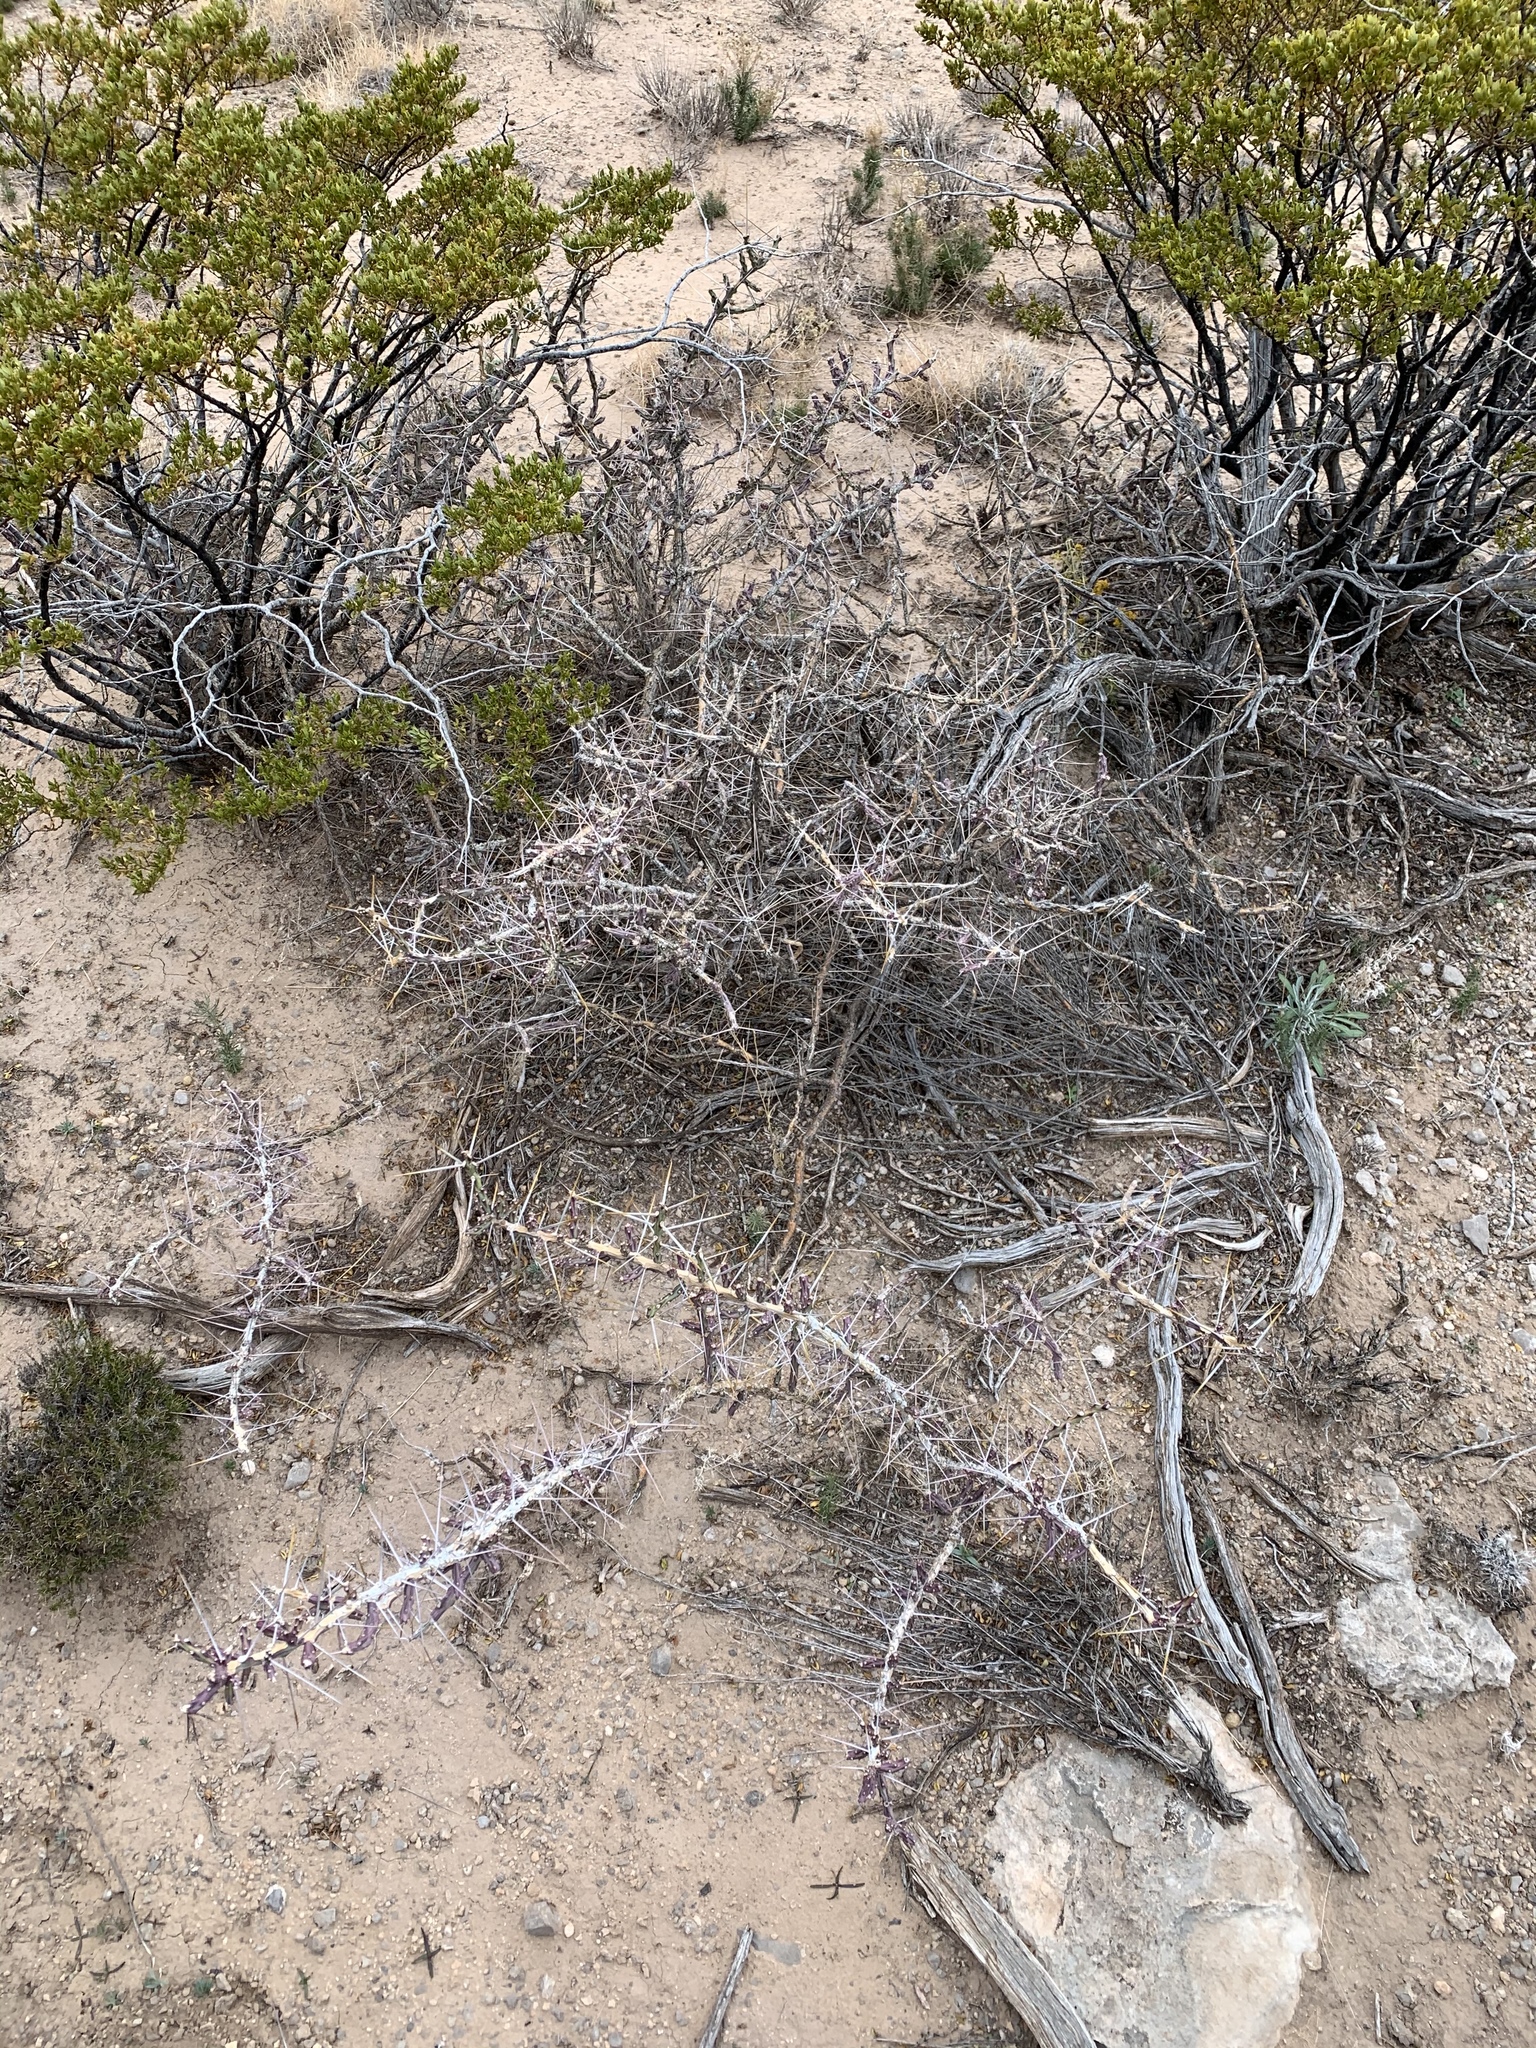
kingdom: Plantae
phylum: Tracheophyta
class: Magnoliopsida
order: Caryophyllales
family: Cactaceae
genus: Cylindropuntia
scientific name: Cylindropuntia leptocaulis
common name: Christmas cactus
